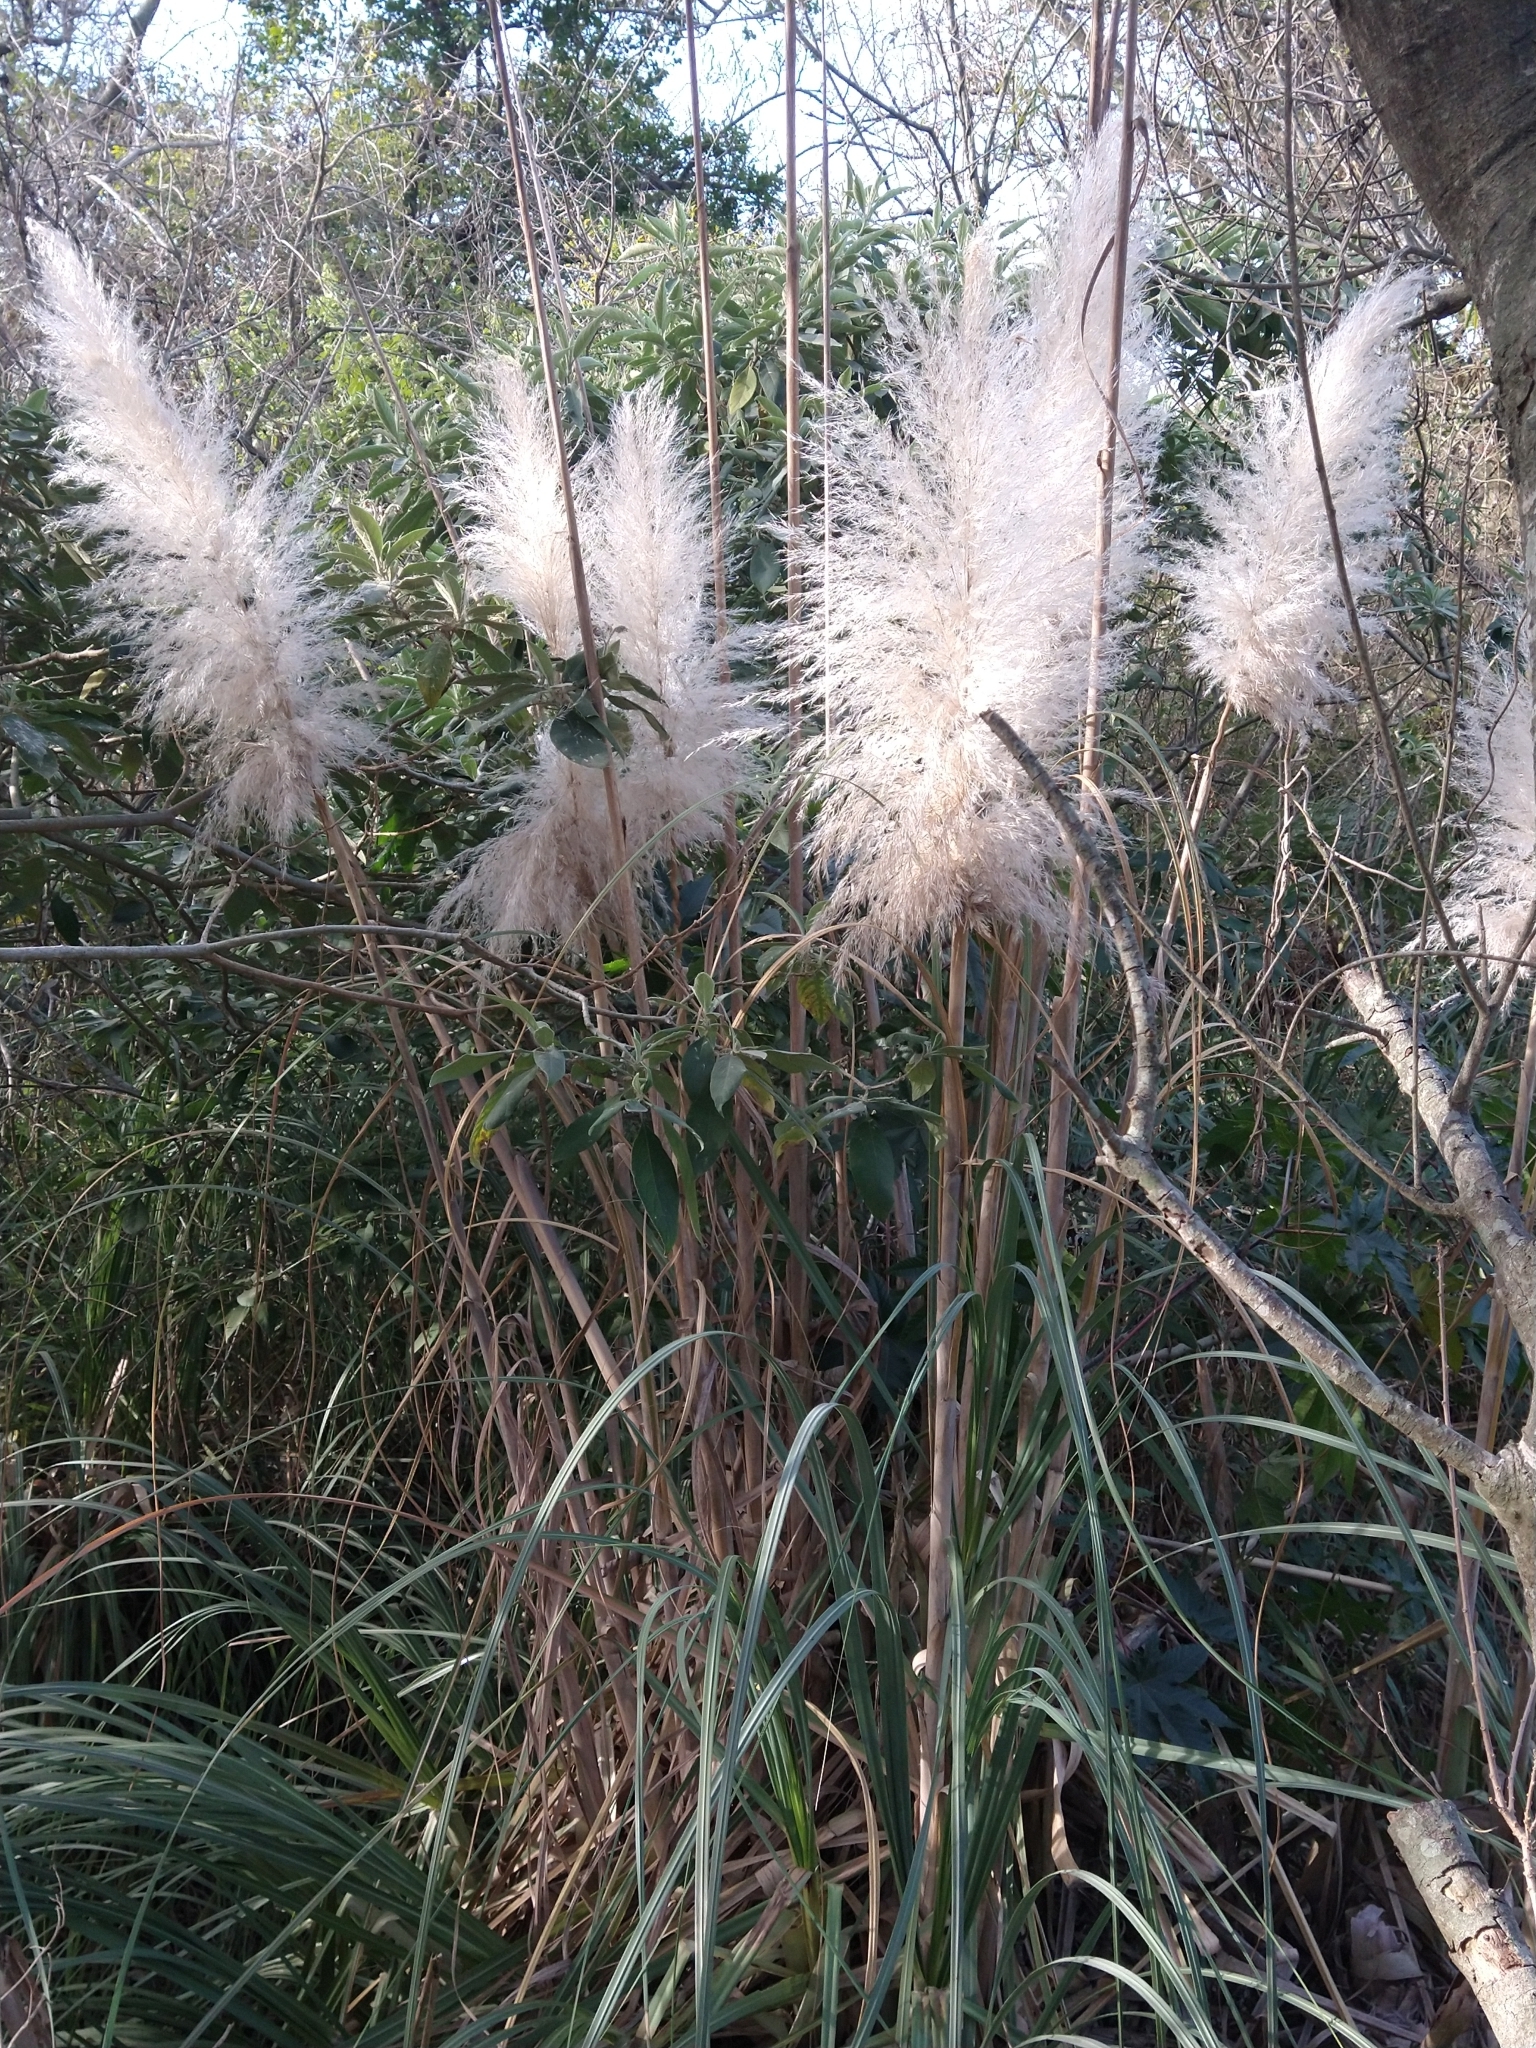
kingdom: Plantae
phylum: Tracheophyta
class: Liliopsida
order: Poales
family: Poaceae
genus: Cortaderia
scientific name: Cortaderia selloana
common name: Uruguayan pampas grass
